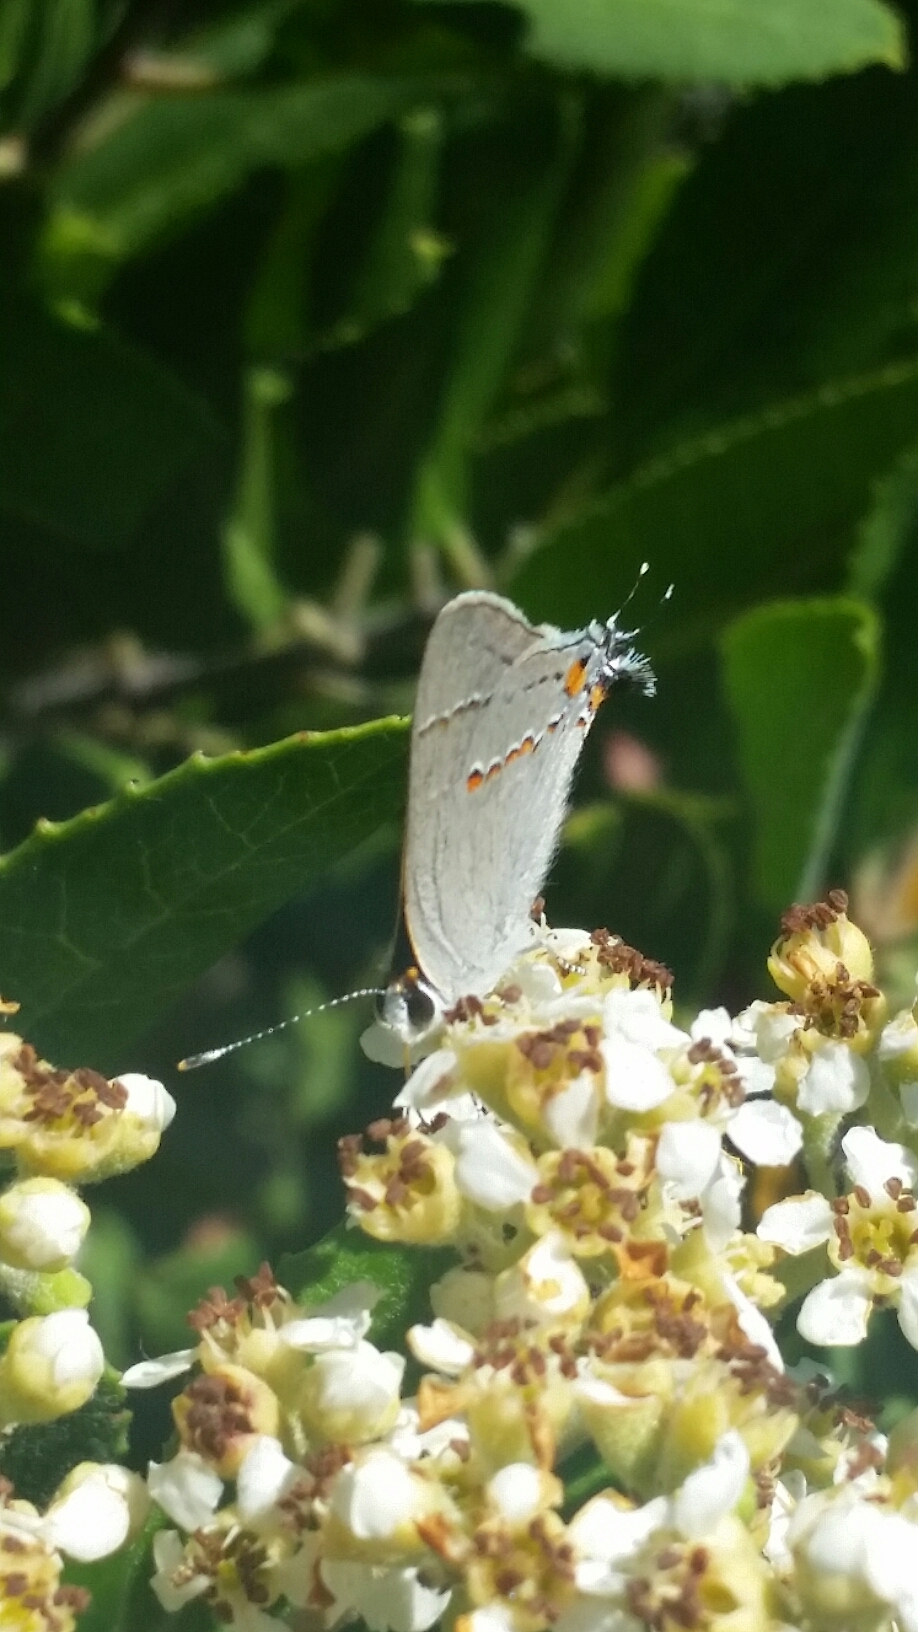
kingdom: Animalia
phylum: Arthropoda
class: Insecta
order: Lepidoptera
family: Lycaenidae
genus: Strymon
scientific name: Strymon melinus
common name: Gray hairstreak
